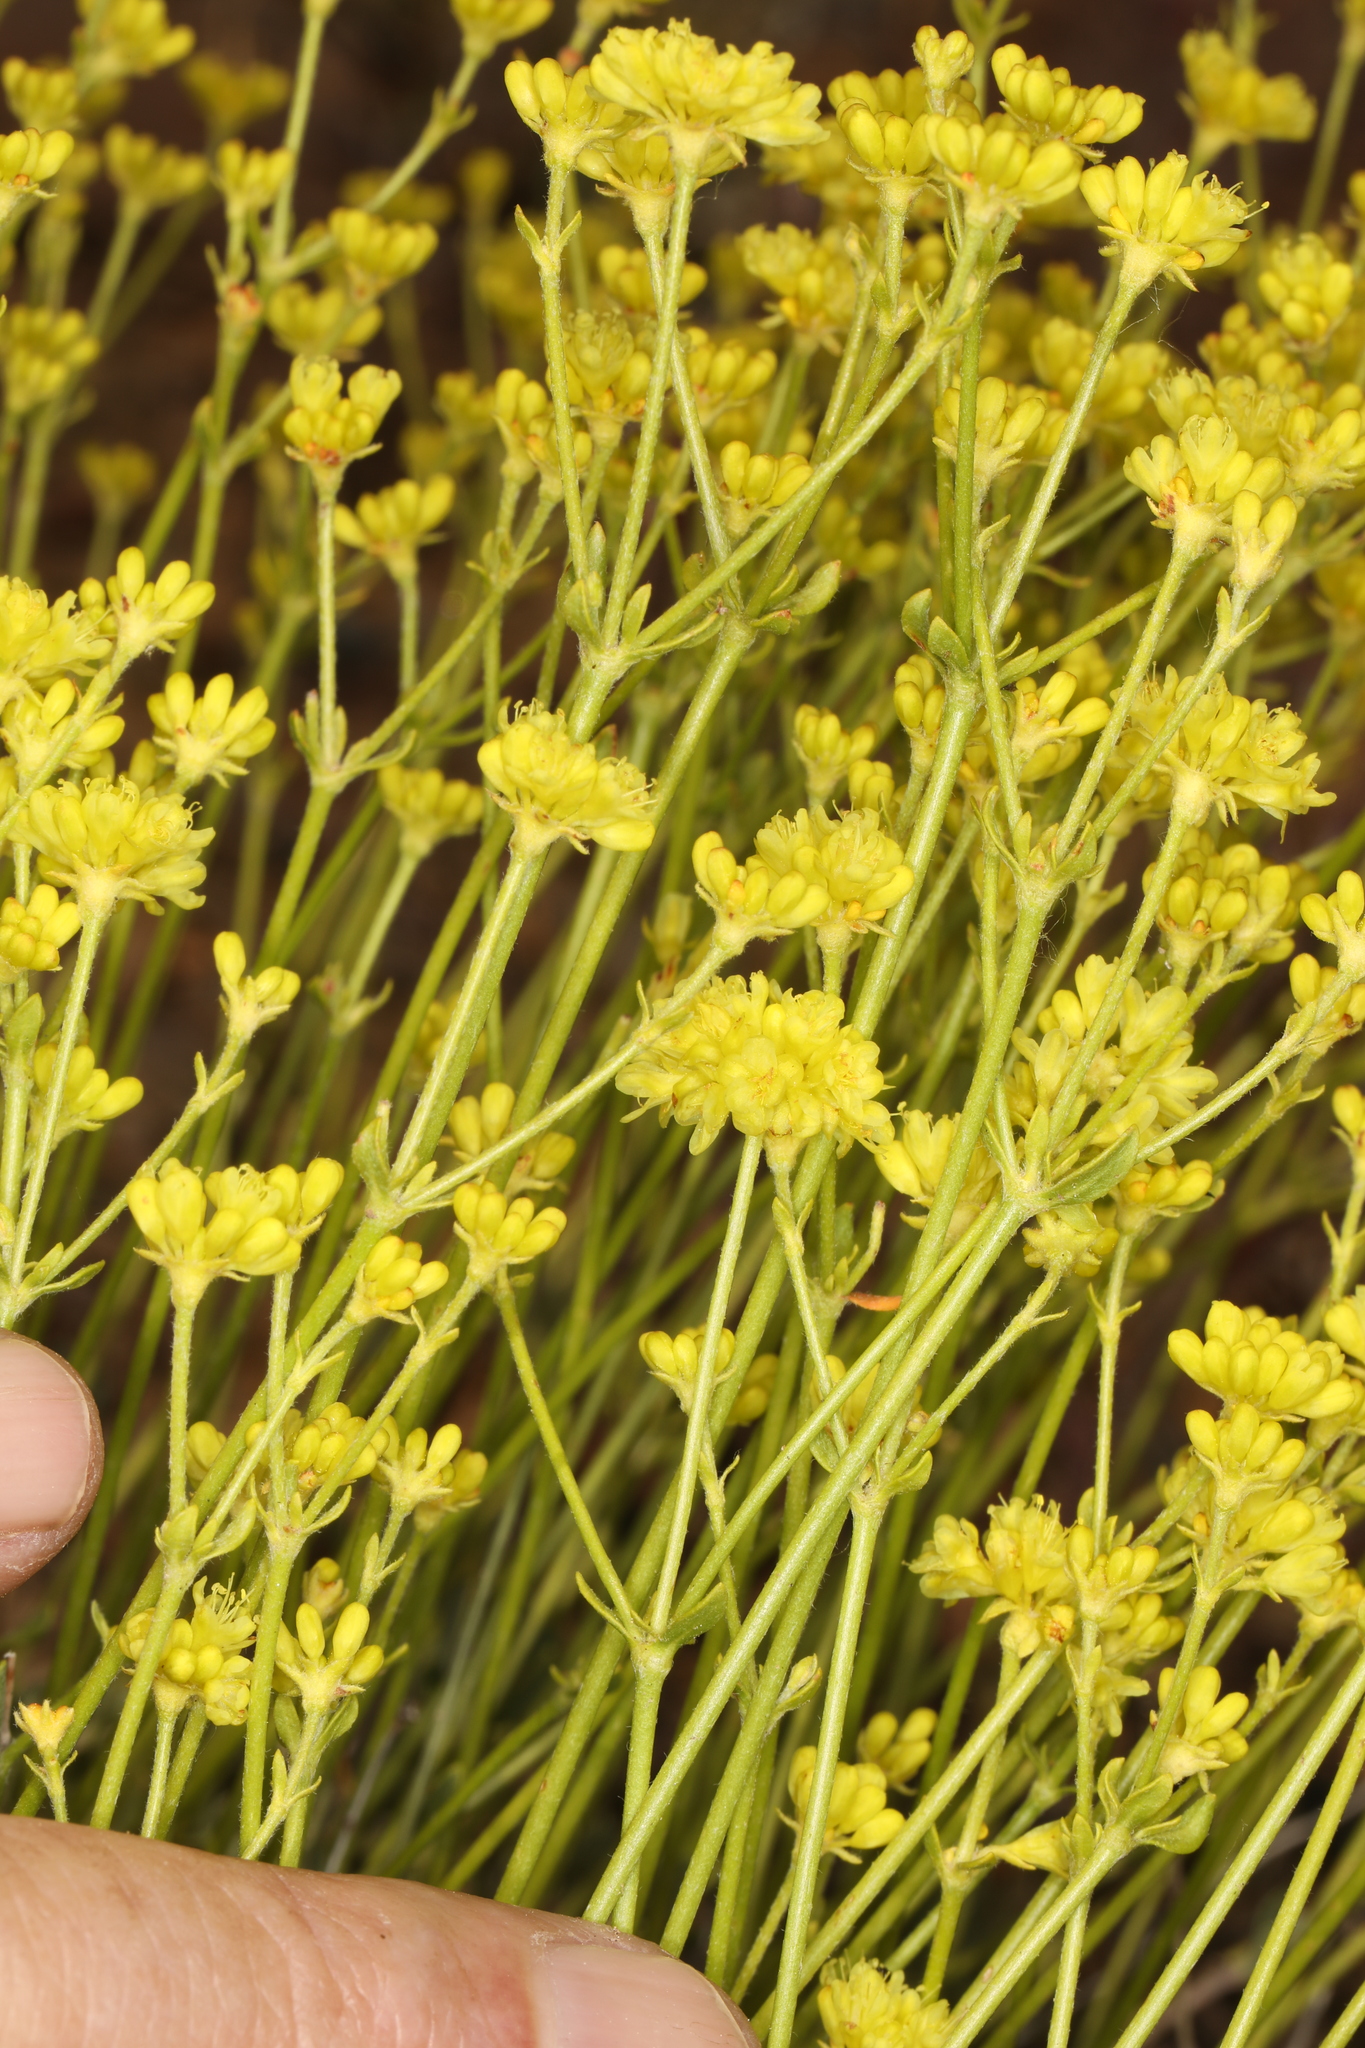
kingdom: Plantae
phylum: Tracheophyta
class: Magnoliopsida
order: Caryophyllales
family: Polygonaceae
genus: Eriogonum
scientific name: Eriogonum umbellatum
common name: Sulfur-buckwheat
